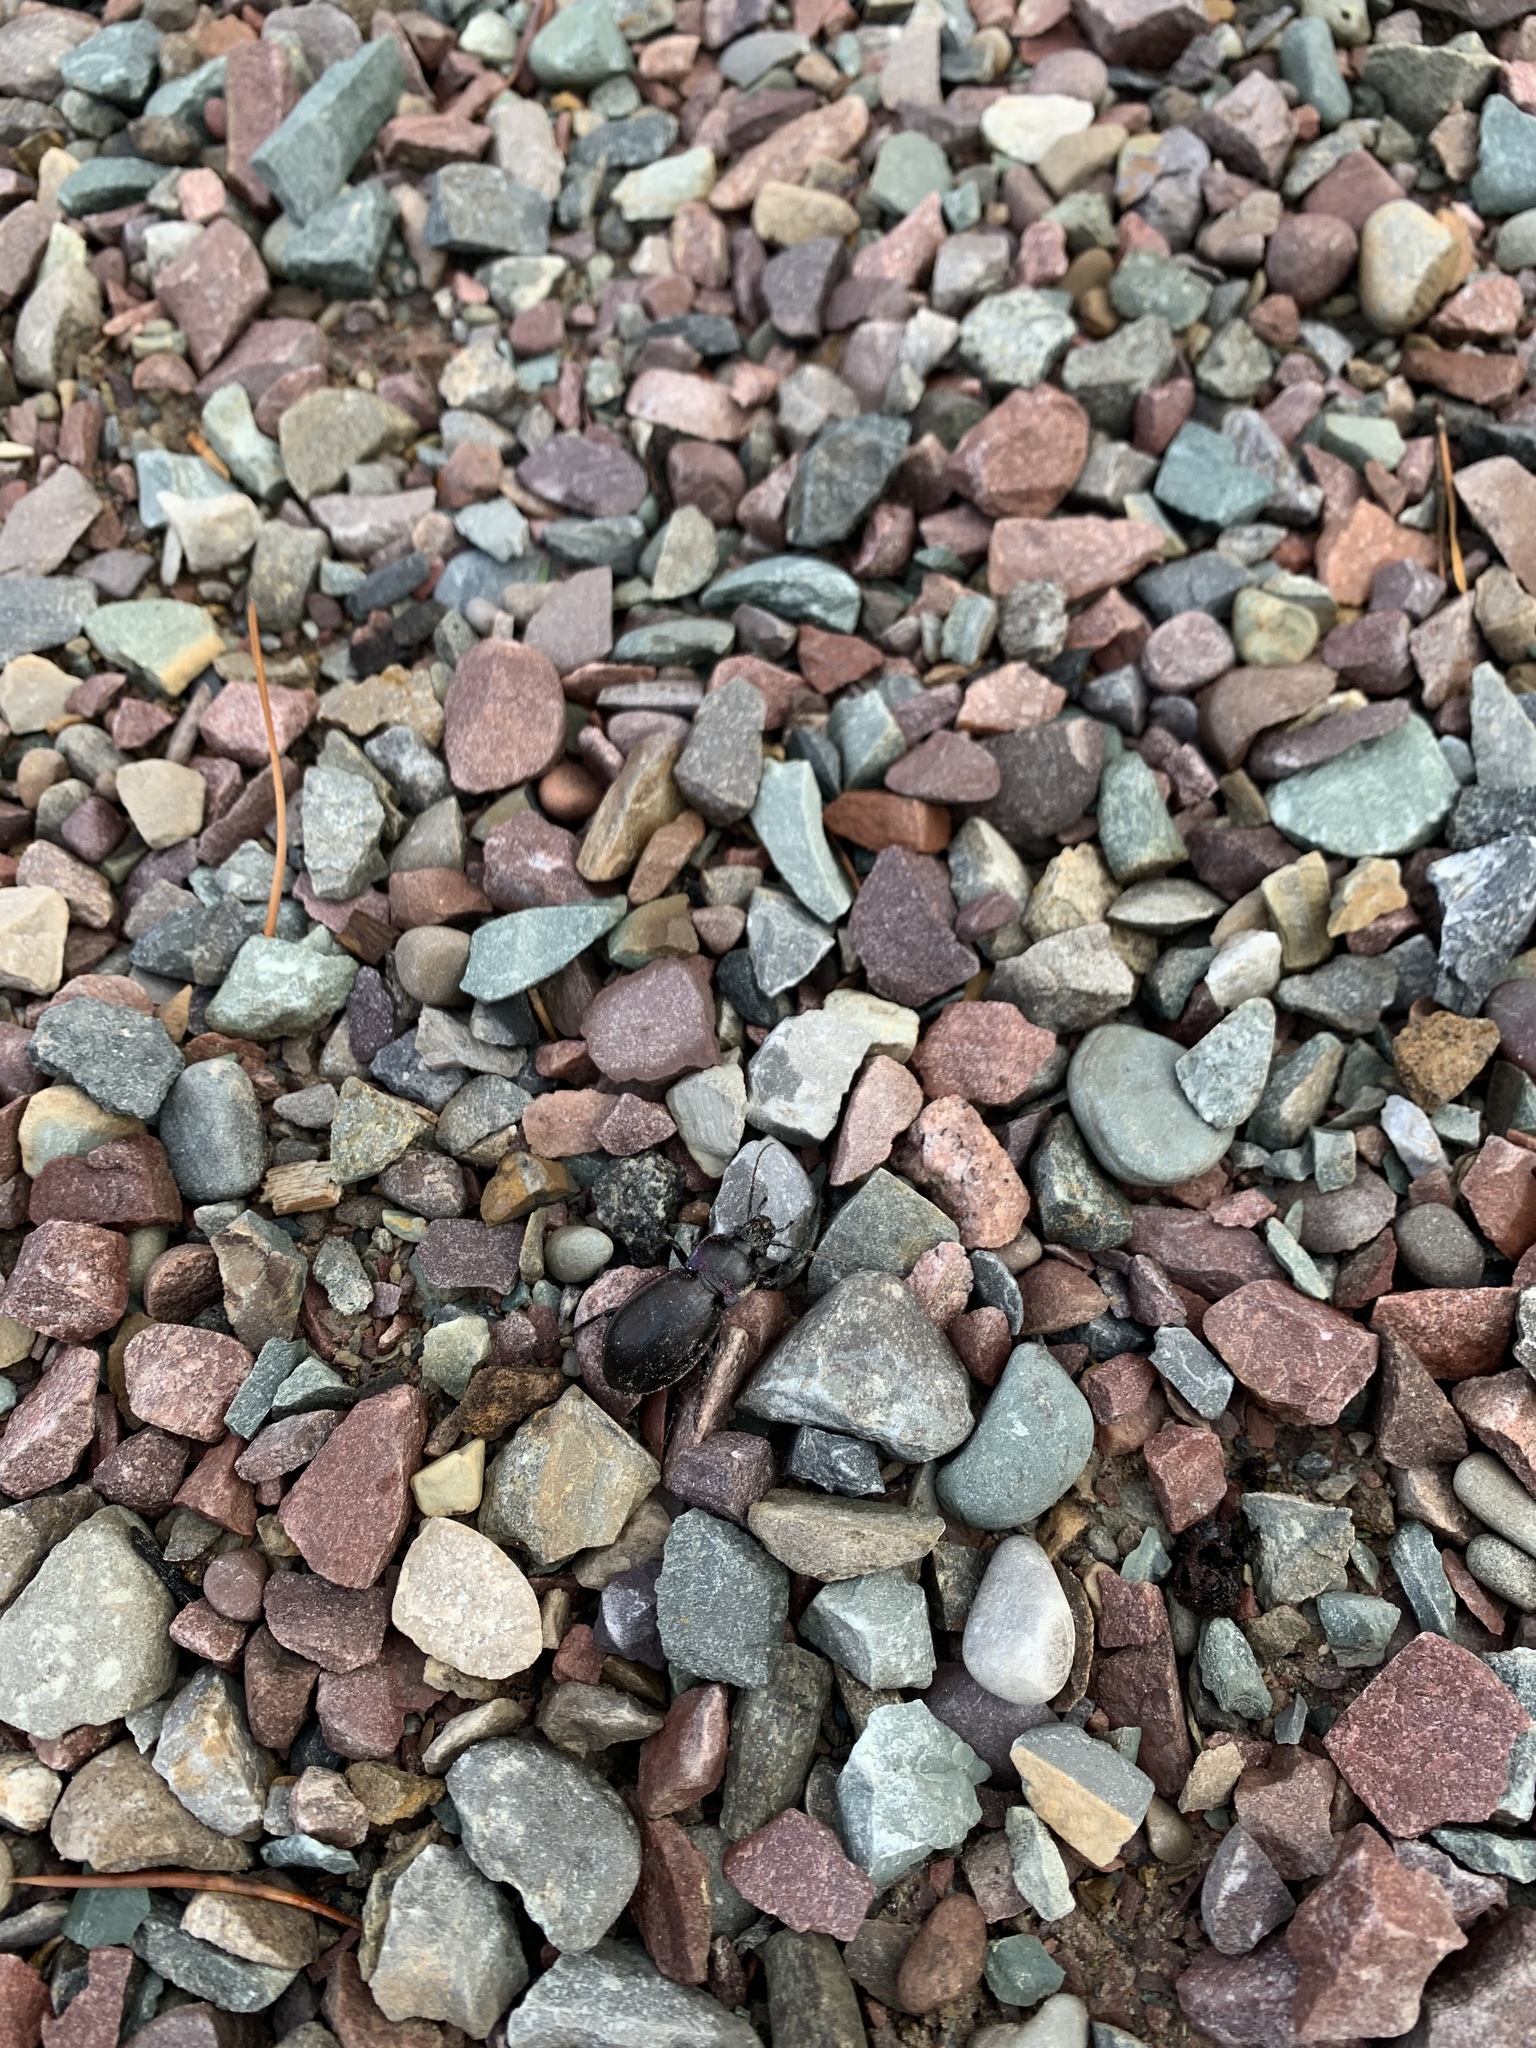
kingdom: Animalia
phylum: Arthropoda
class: Insecta
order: Coleoptera
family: Carabidae
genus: Carabus
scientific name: Carabus nemoralis
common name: European ground beetle
